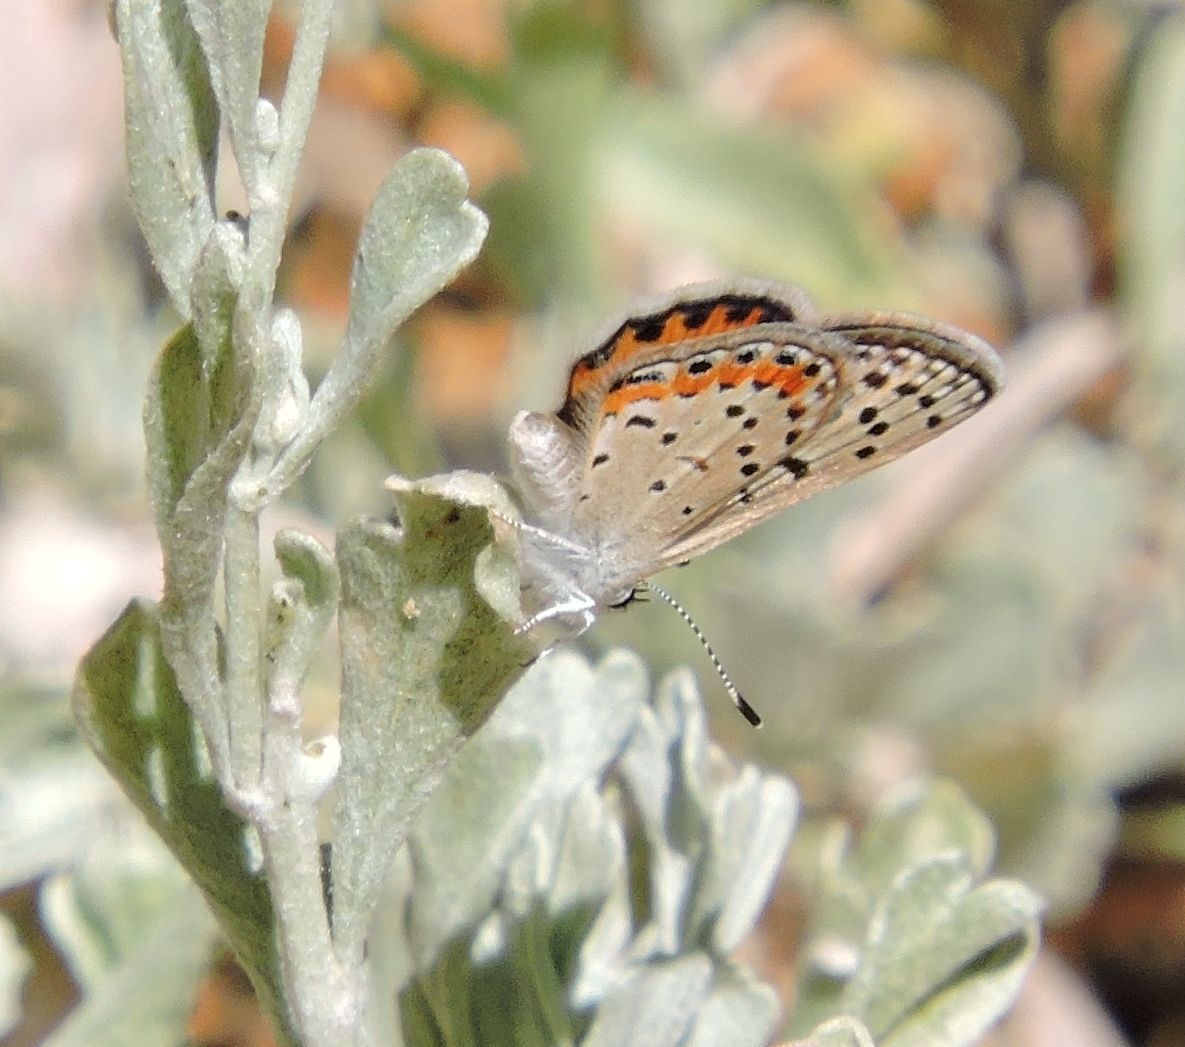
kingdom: Animalia
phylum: Arthropoda
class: Insecta
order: Lepidoptera
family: Lycaenidae
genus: Icaricia
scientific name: Icaricia acmon
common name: Acmon blue
